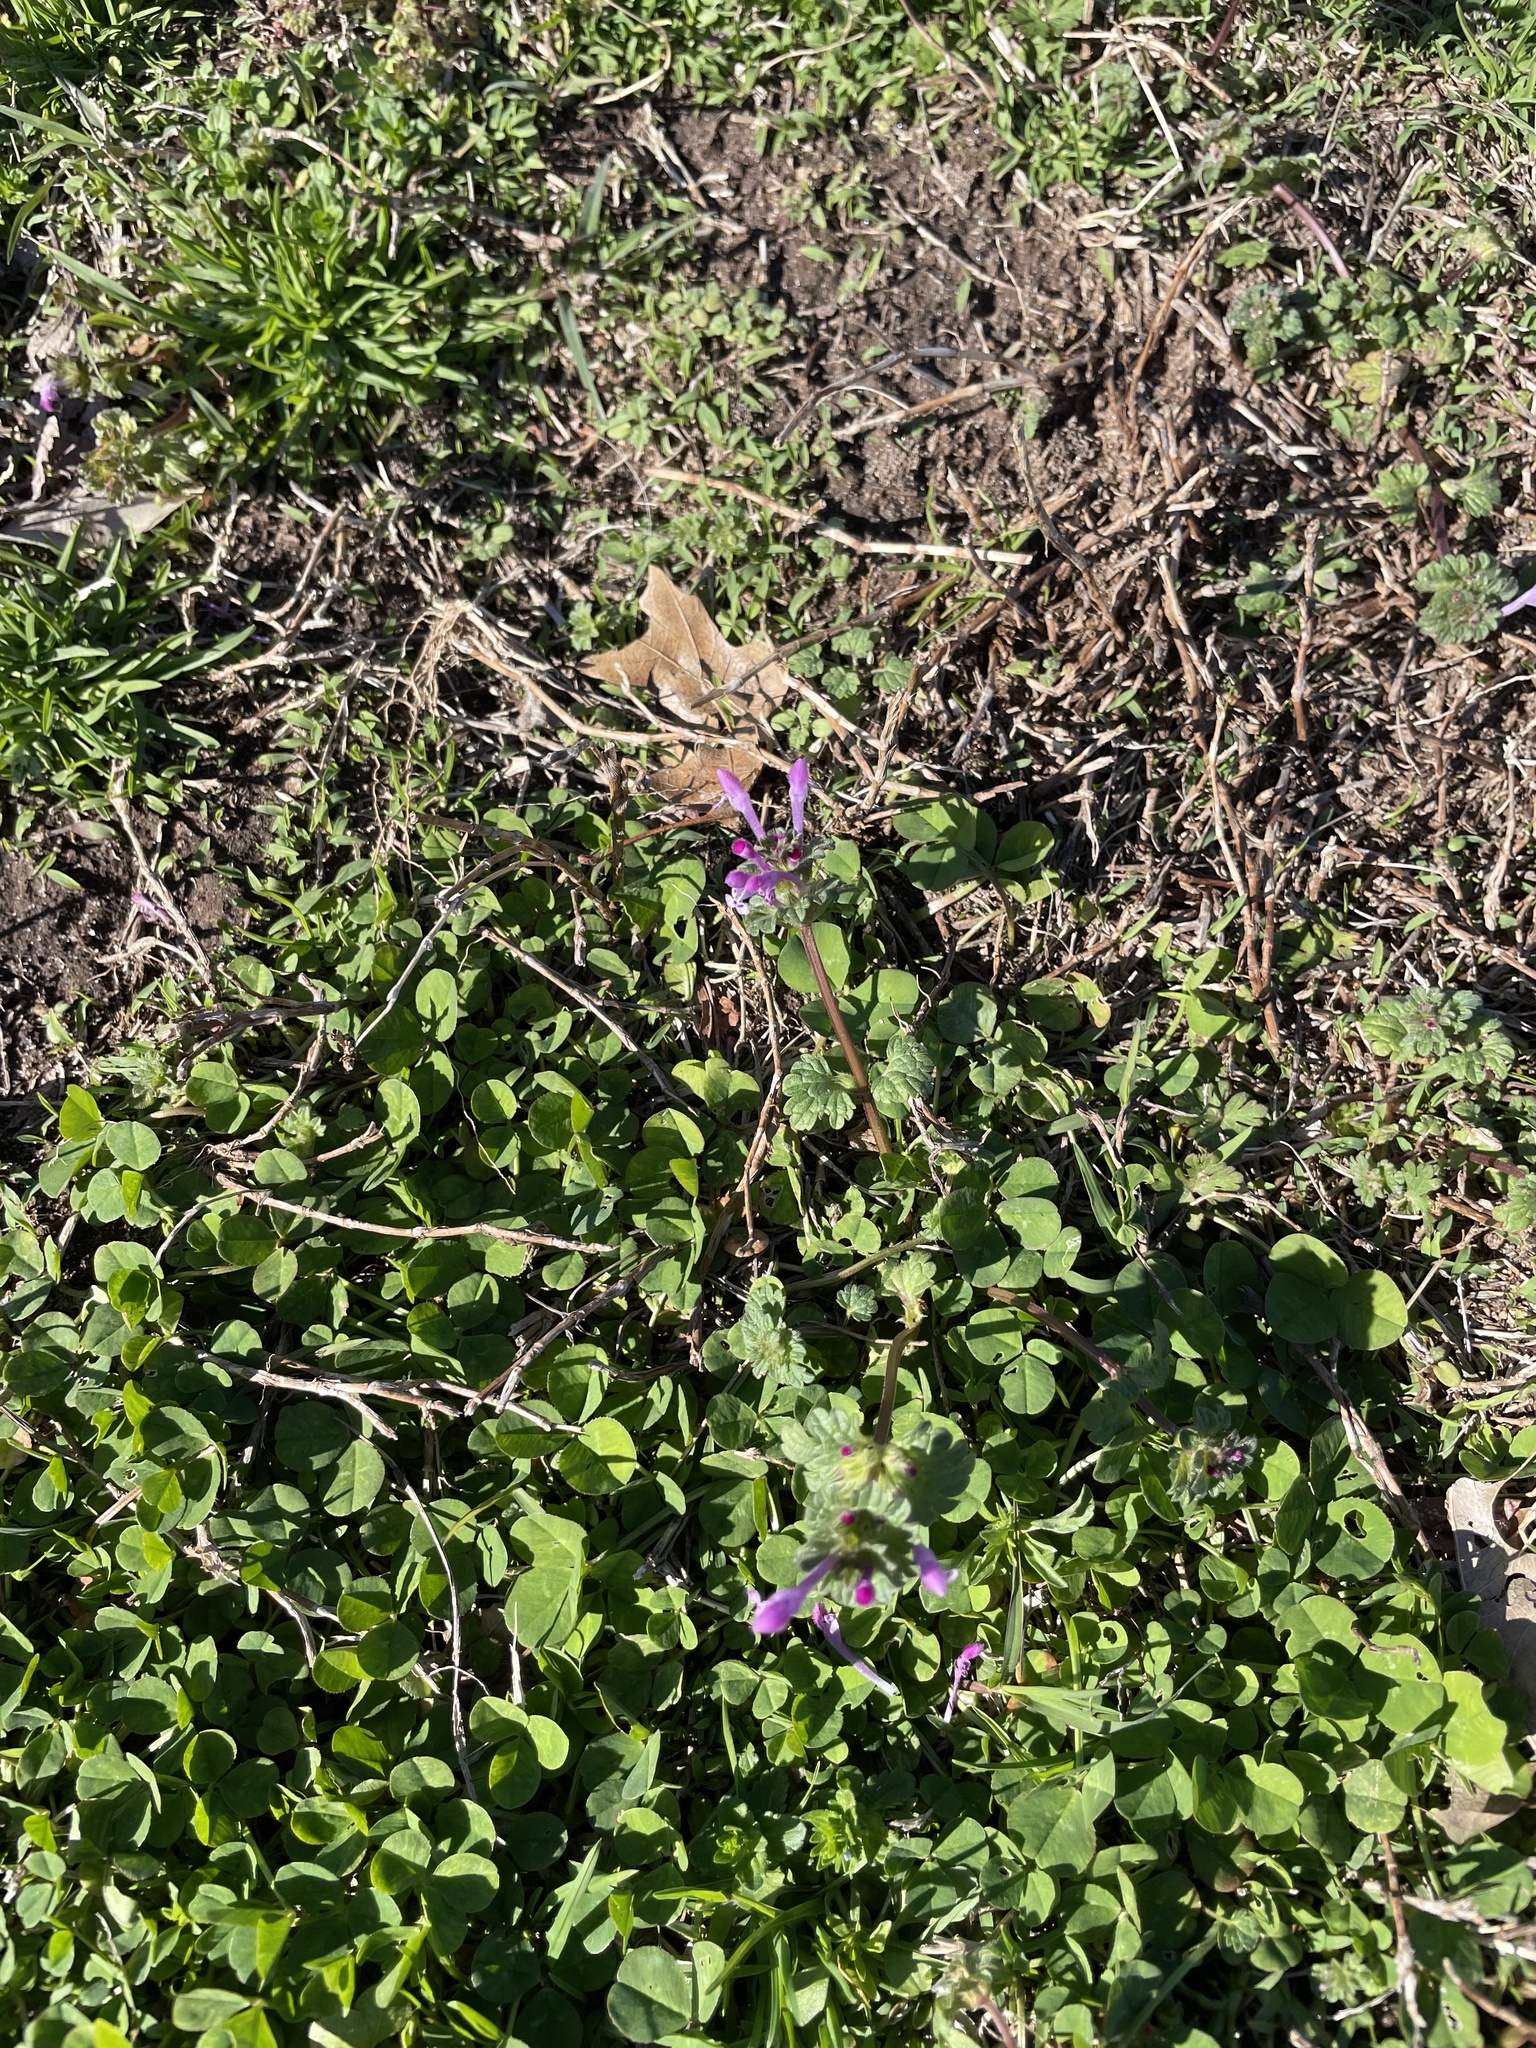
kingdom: Plantae
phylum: Tracheophyta
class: Magnoliopsida
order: Lamiales
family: Lamiaceae
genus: Lamium
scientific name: Lamium amplexicaule
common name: Henbit dead-nettle
